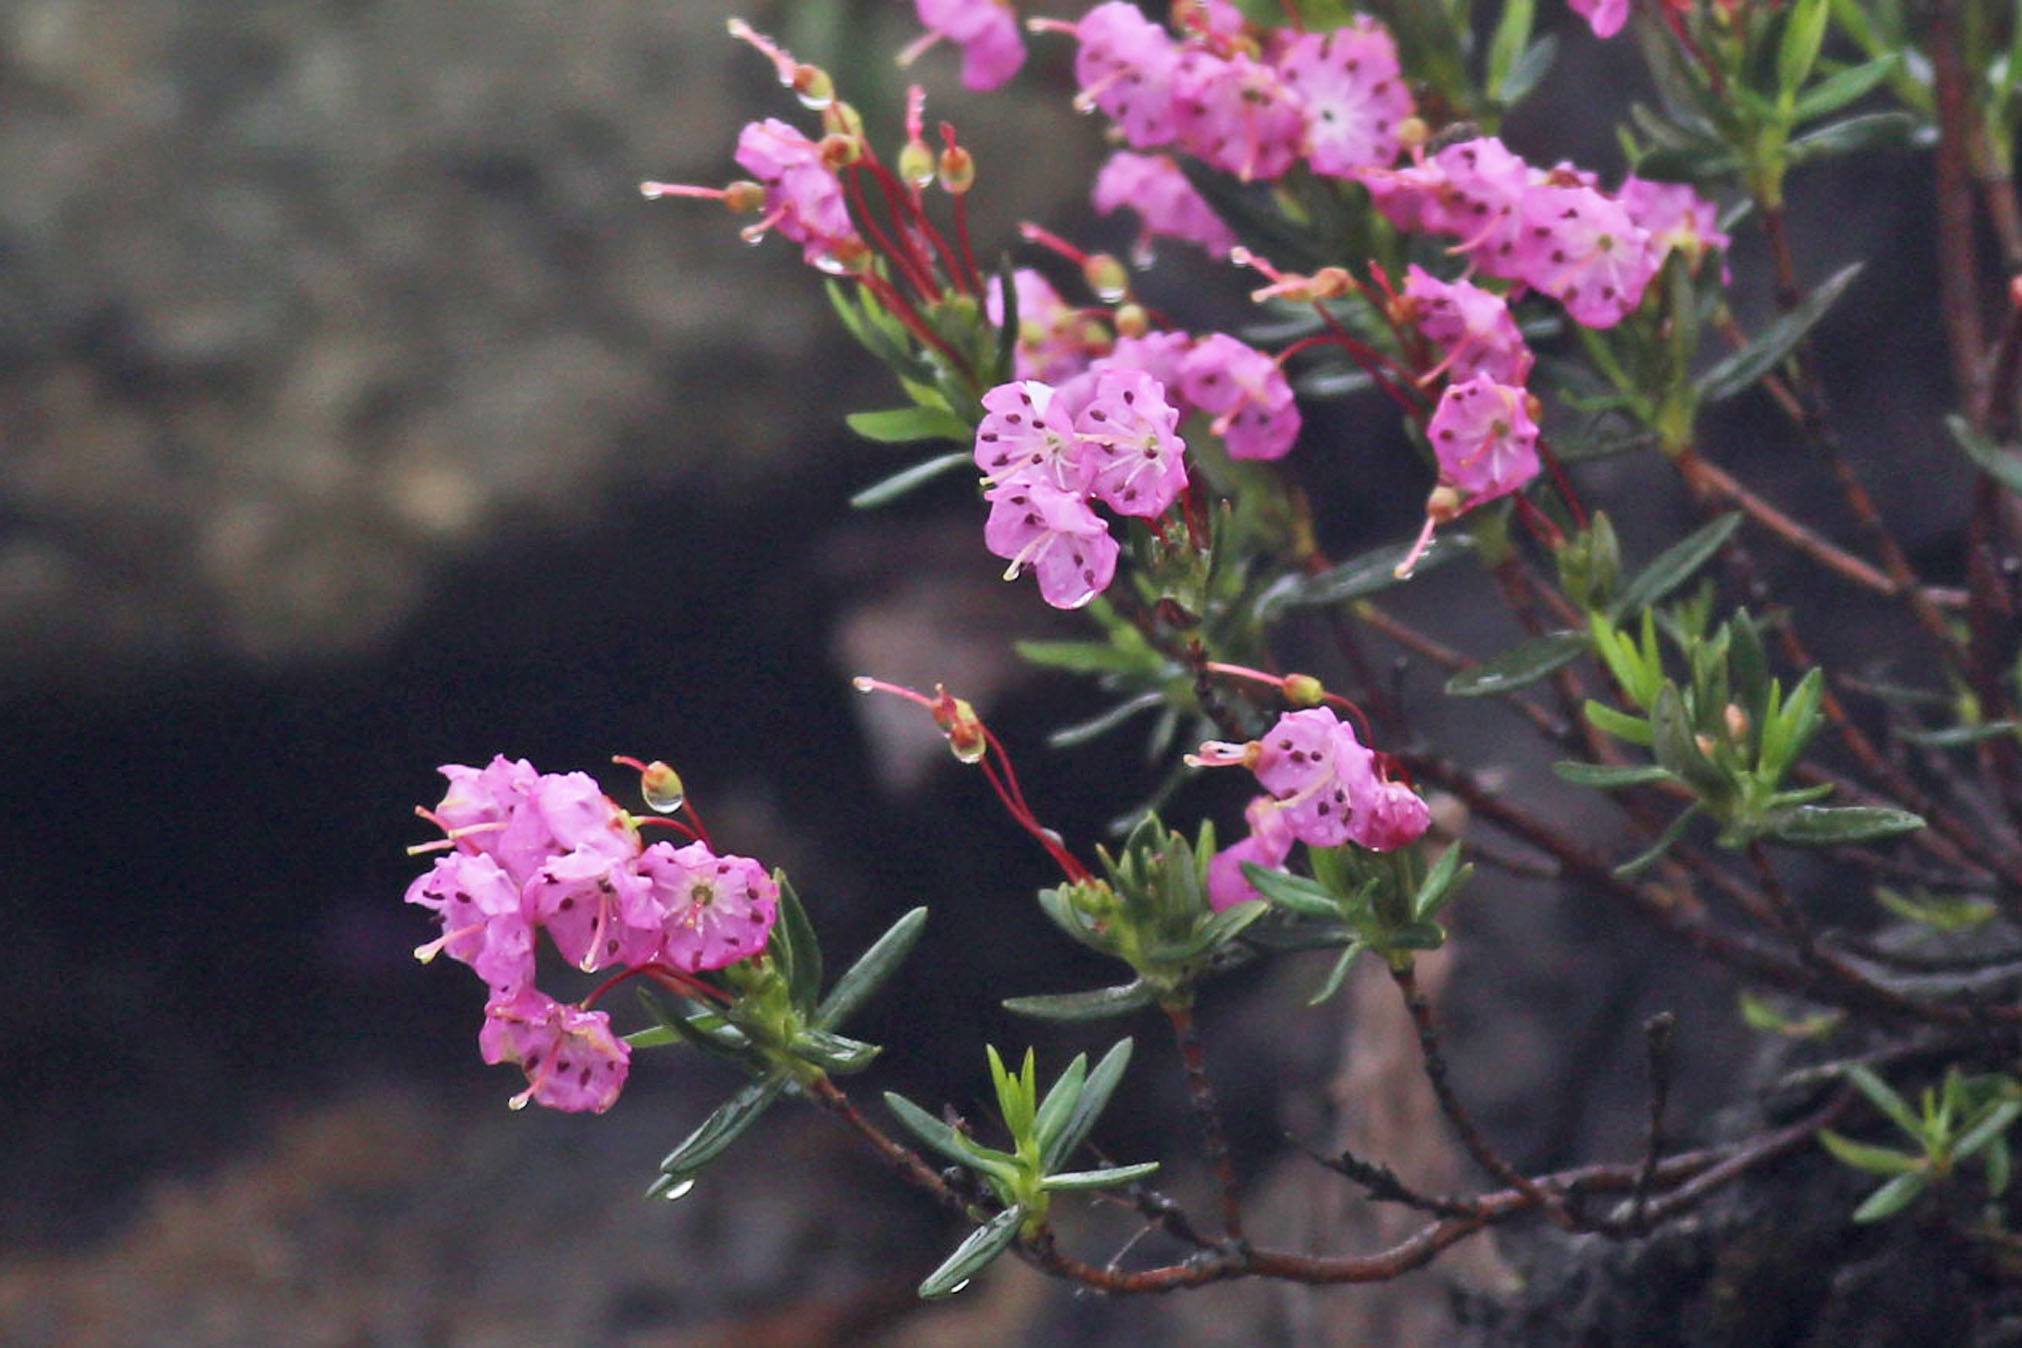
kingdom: Plantae
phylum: Tracheophyta
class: Magnoliopsida
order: Ericales
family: Ericaceae
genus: Kalmia
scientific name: Kalmia polifolia
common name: Bog-laurel
